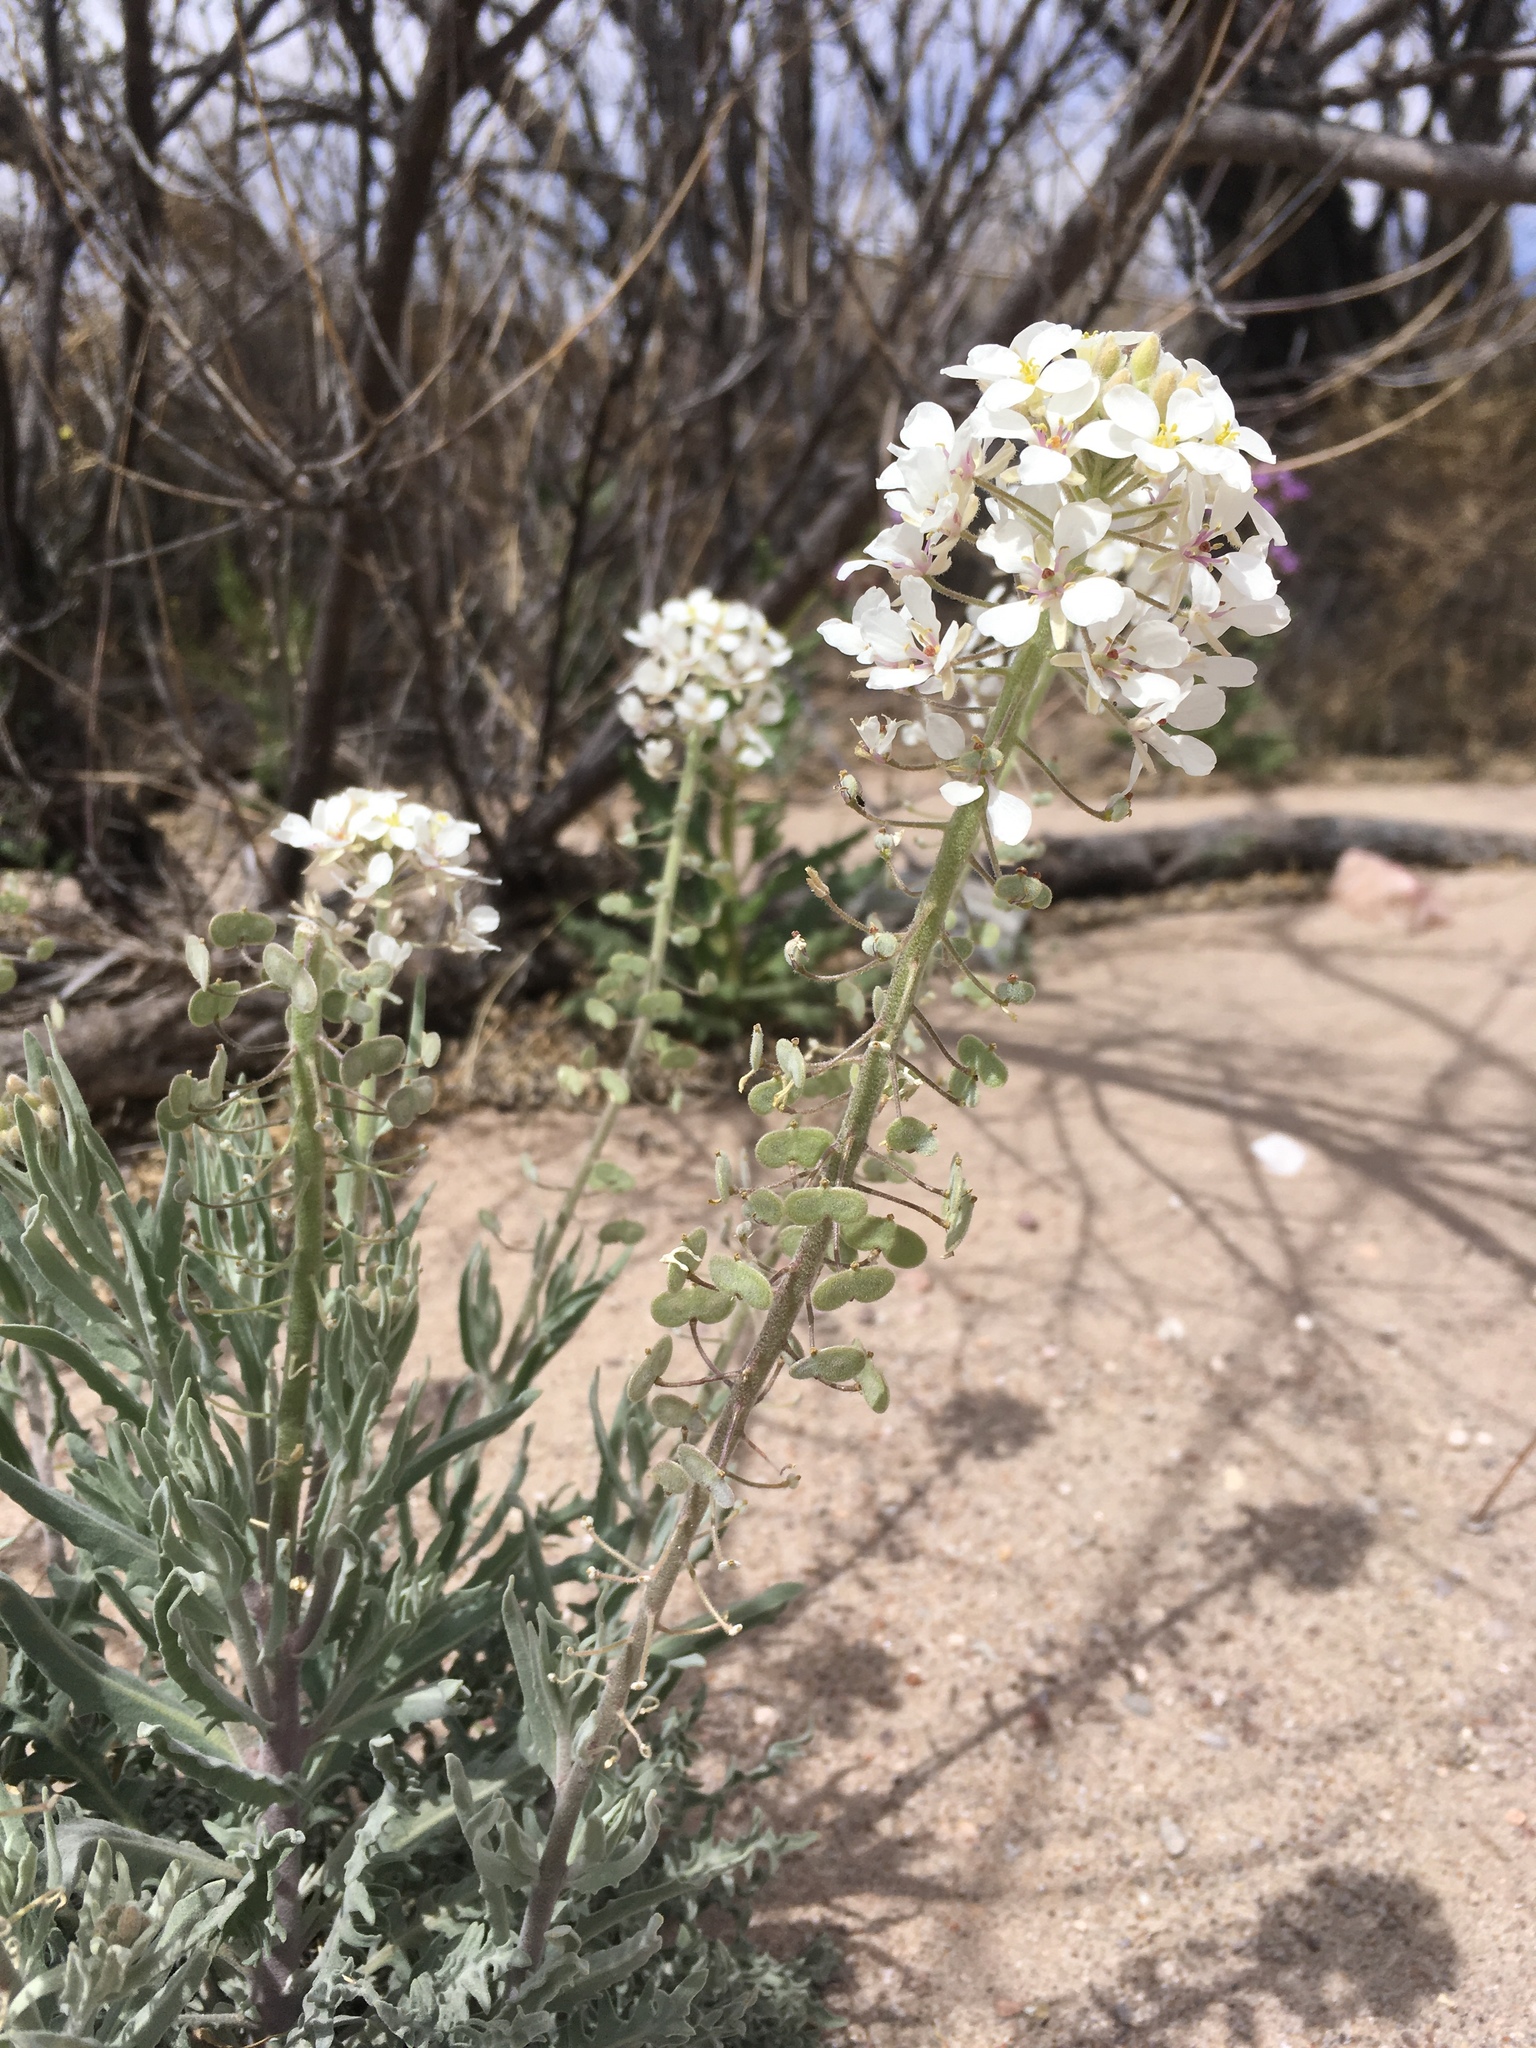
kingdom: Plantae
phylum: Tracheophyta
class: Magnoliopsida
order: Brassicales
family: Brassicaceae
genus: Dimorphocarpa
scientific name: Dimorphocarpa wislizenii
